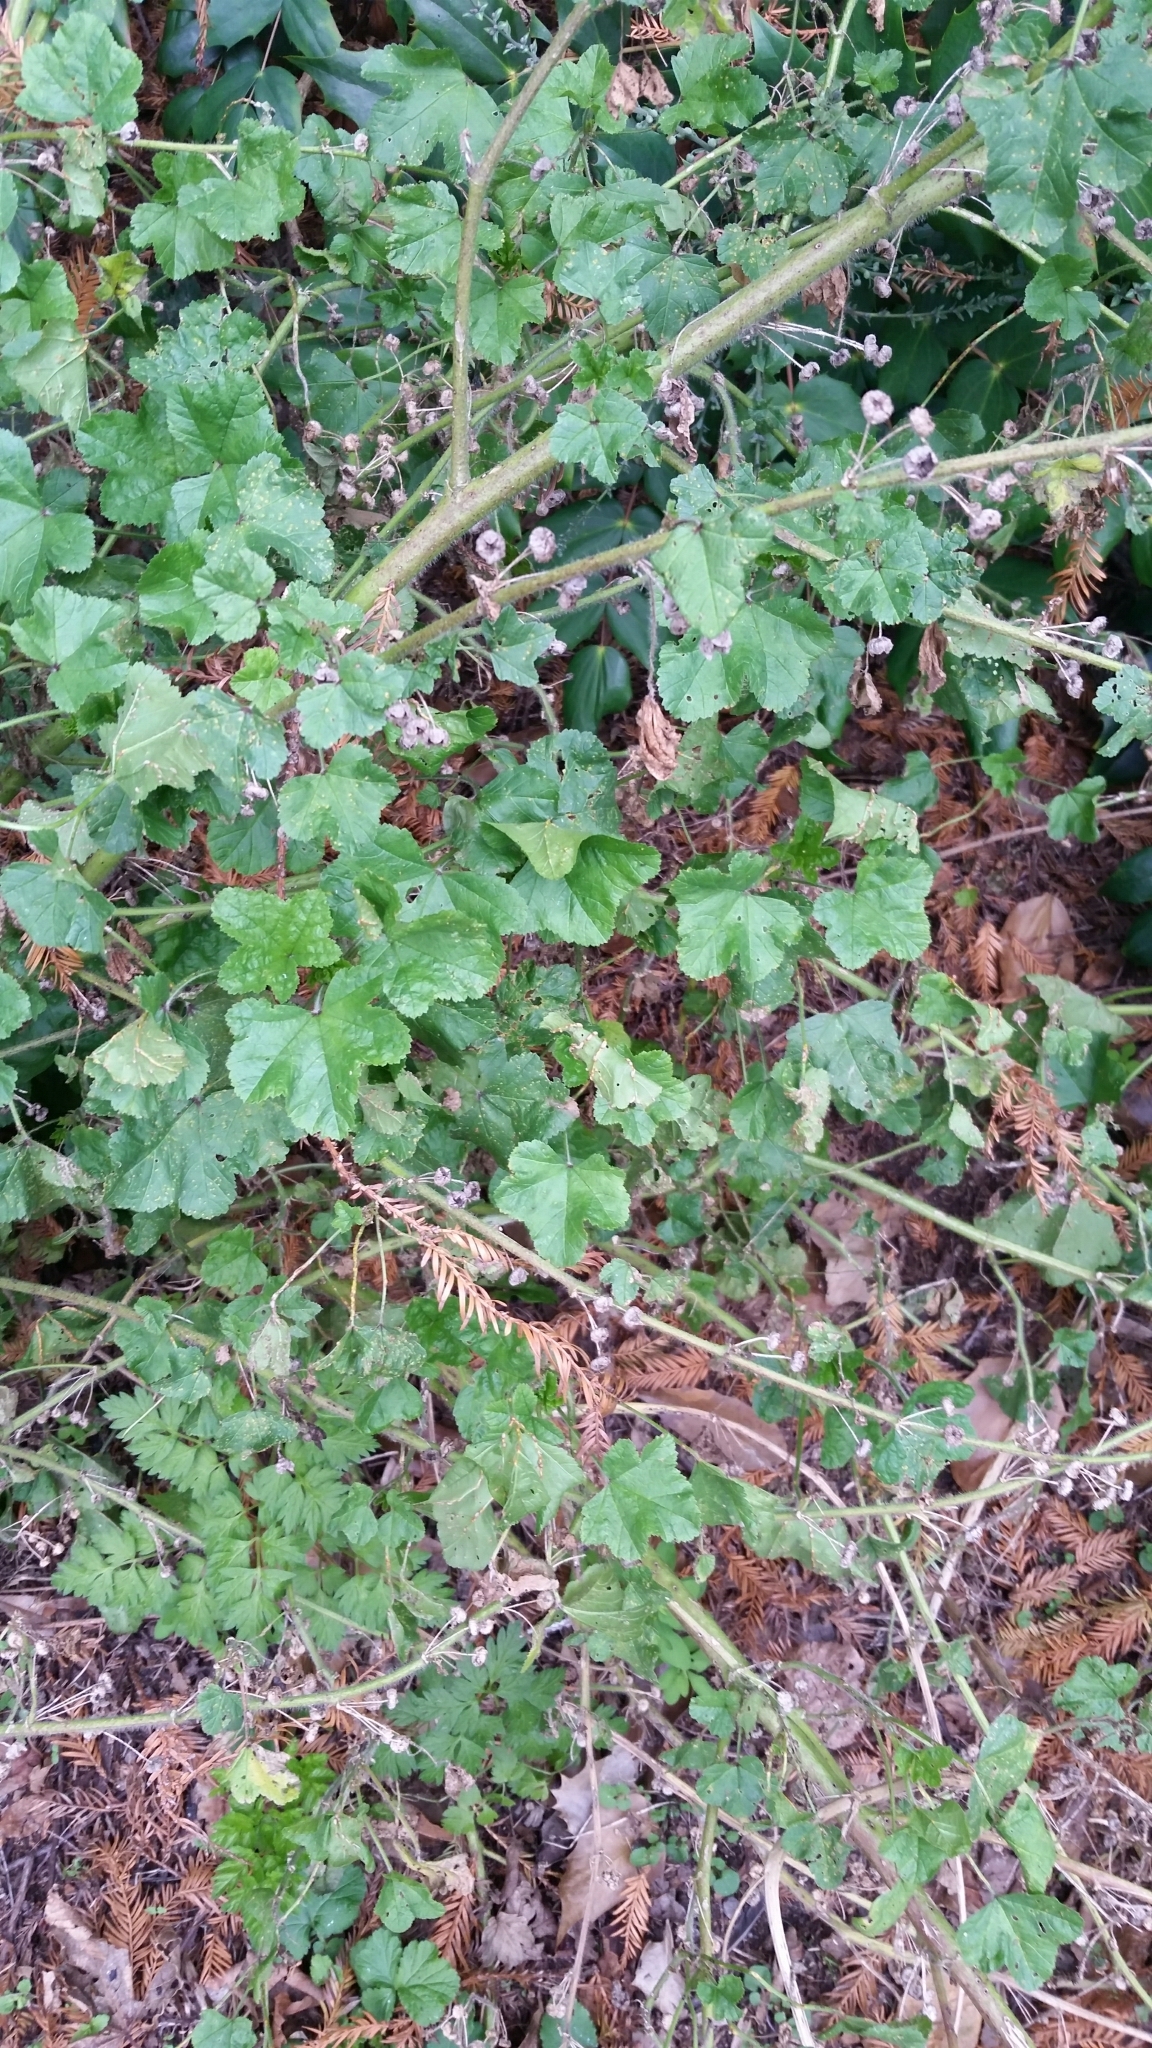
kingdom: Plantae
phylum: Tracheophyta
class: Magnoliopsida
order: Malvales
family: Malvaceae
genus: Malva
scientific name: Malva arborea
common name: Tree mallow
